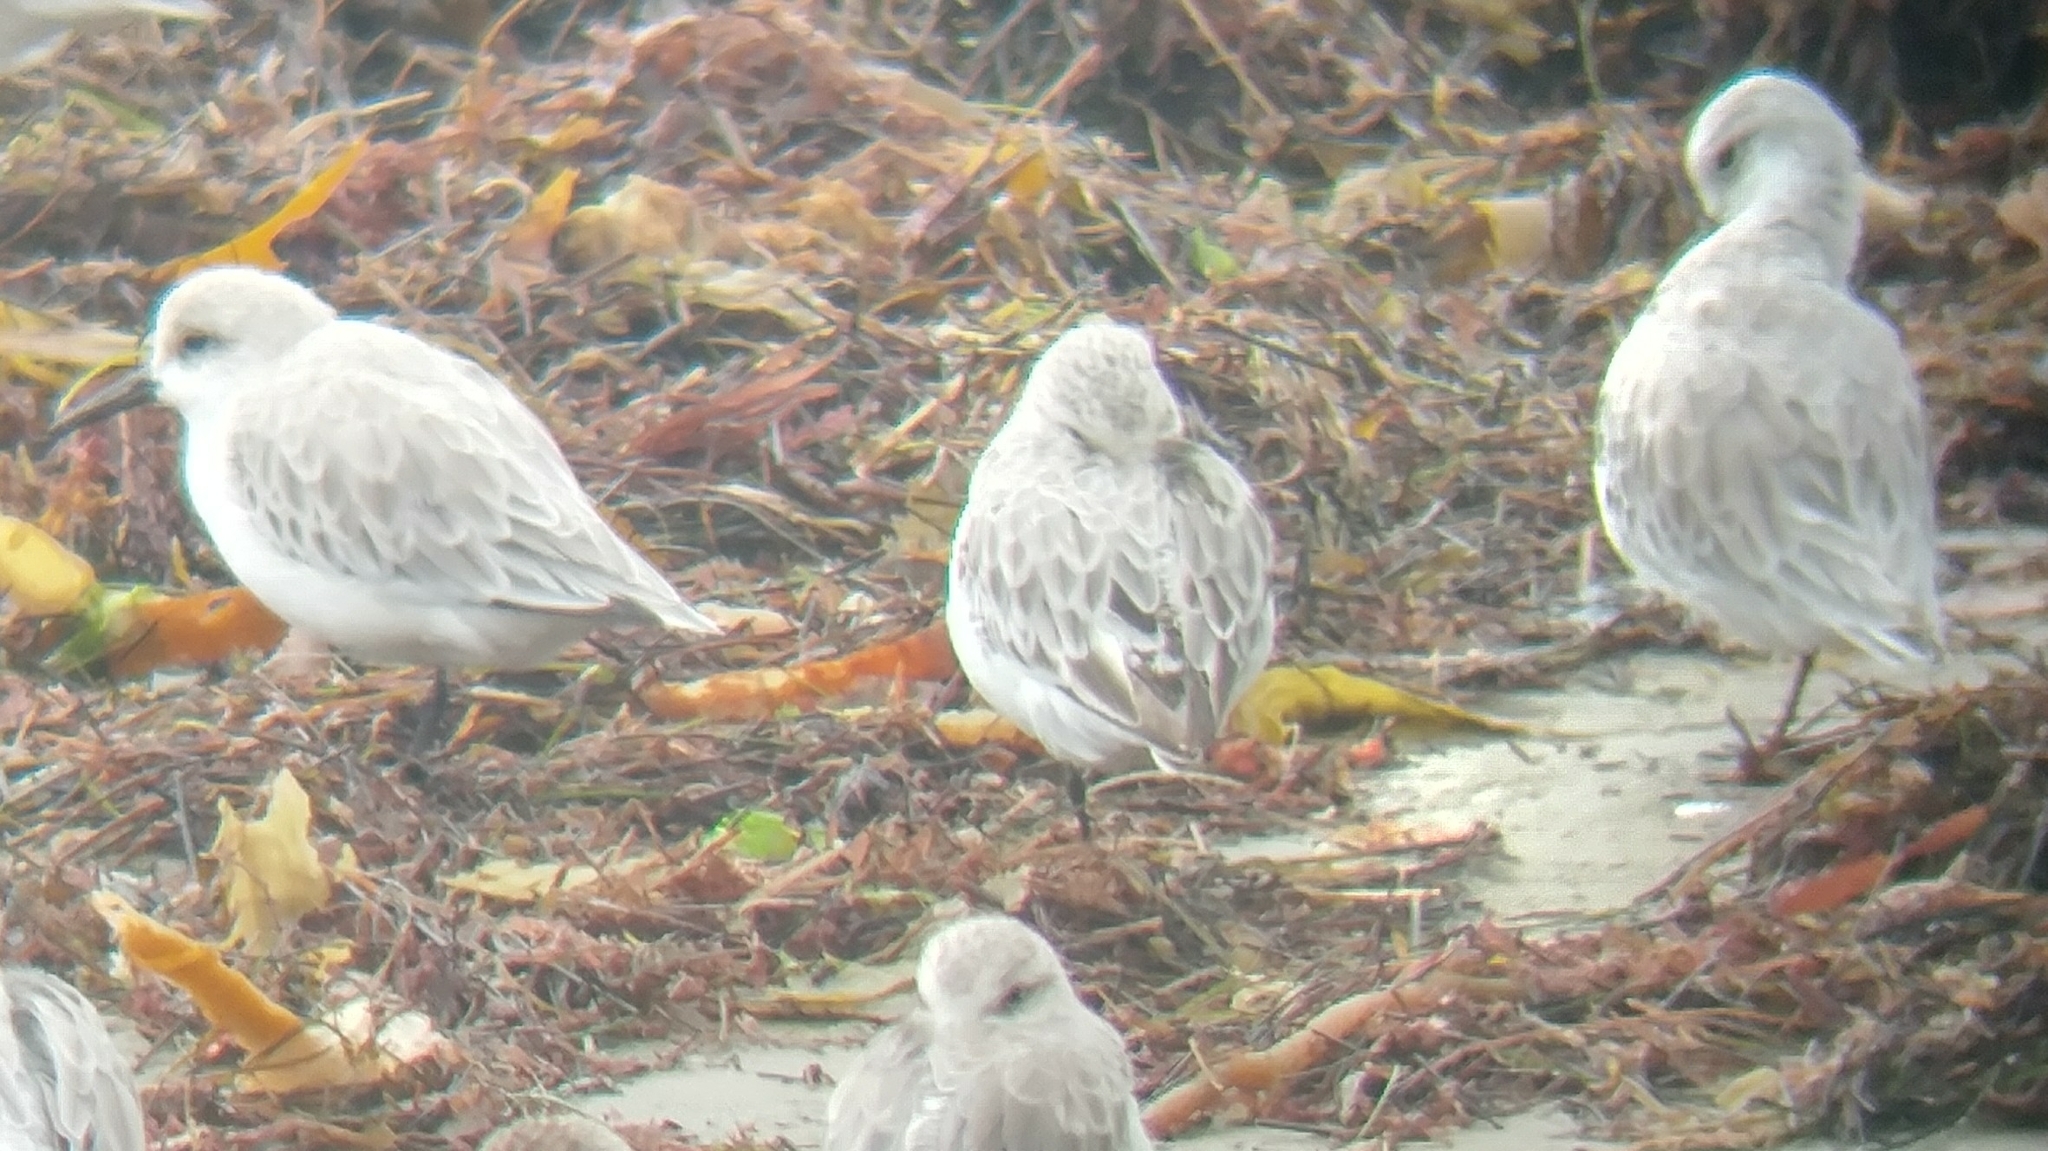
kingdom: Animalia
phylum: Chordata
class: Aves
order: Charadriiformes
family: Scolopacidae
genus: Calidris
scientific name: Calidris alba
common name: Sanderling
